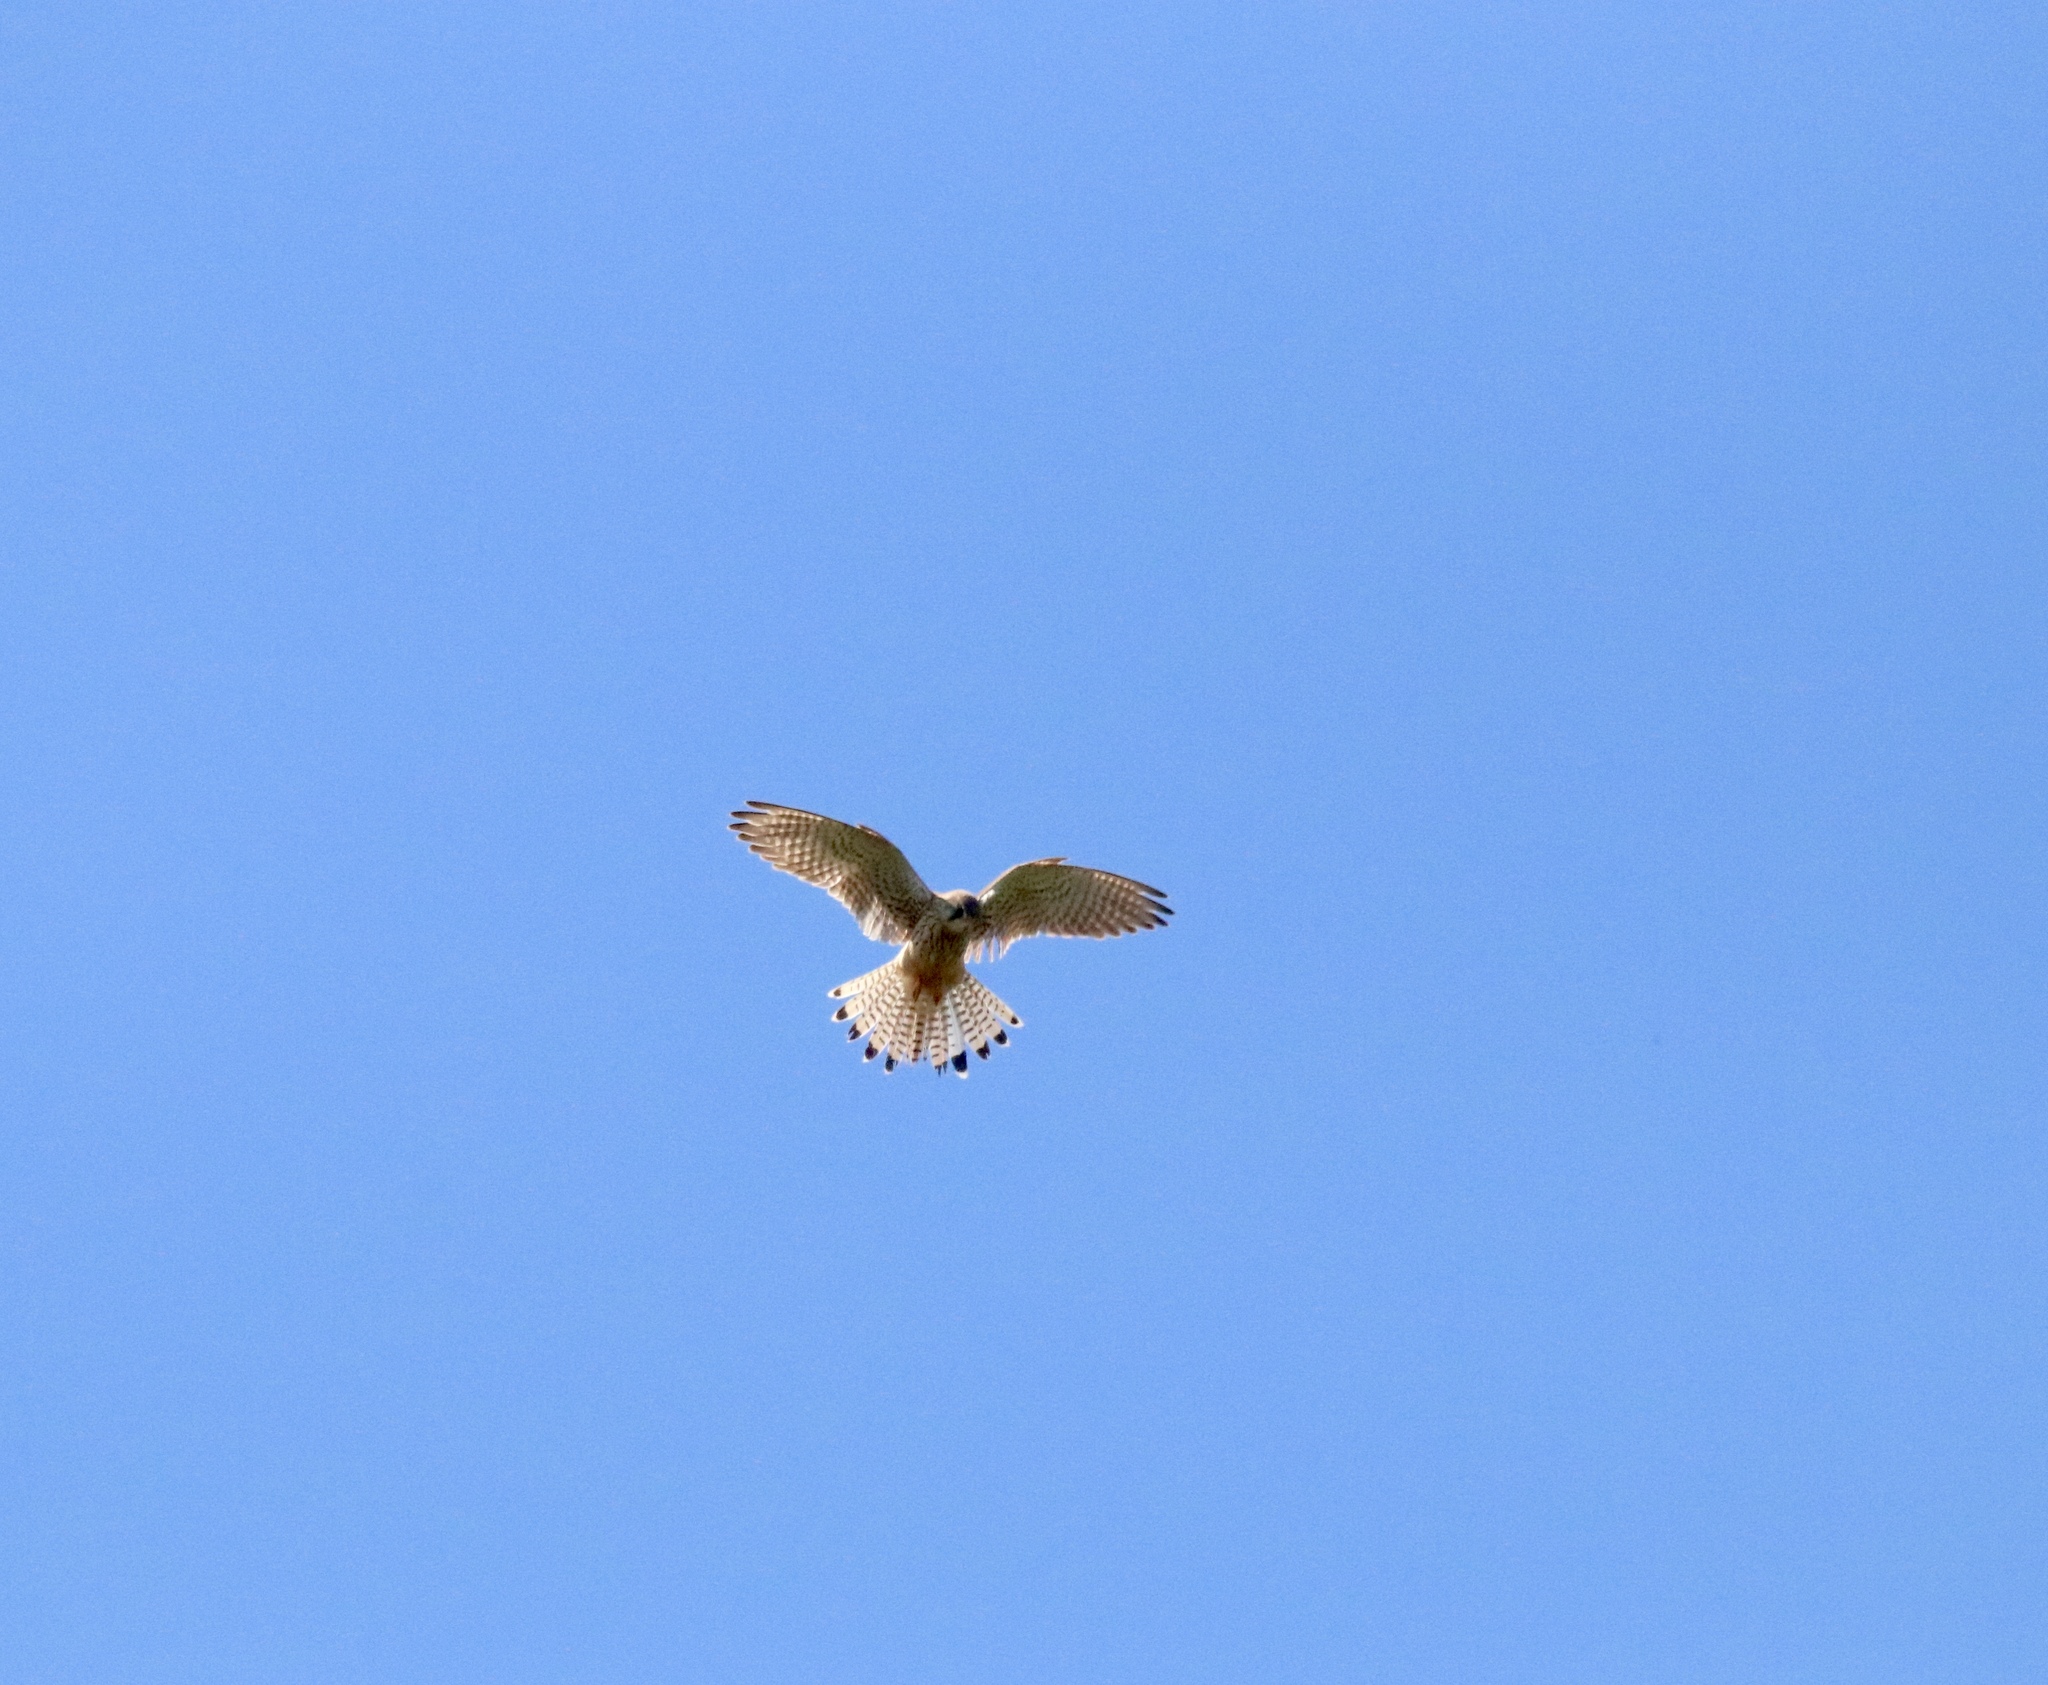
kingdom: Animalia
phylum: Chordata
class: Aves
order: Falconiformes
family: Falconidae
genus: Falco
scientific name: Falco tinnunculus
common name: Common kestrel
